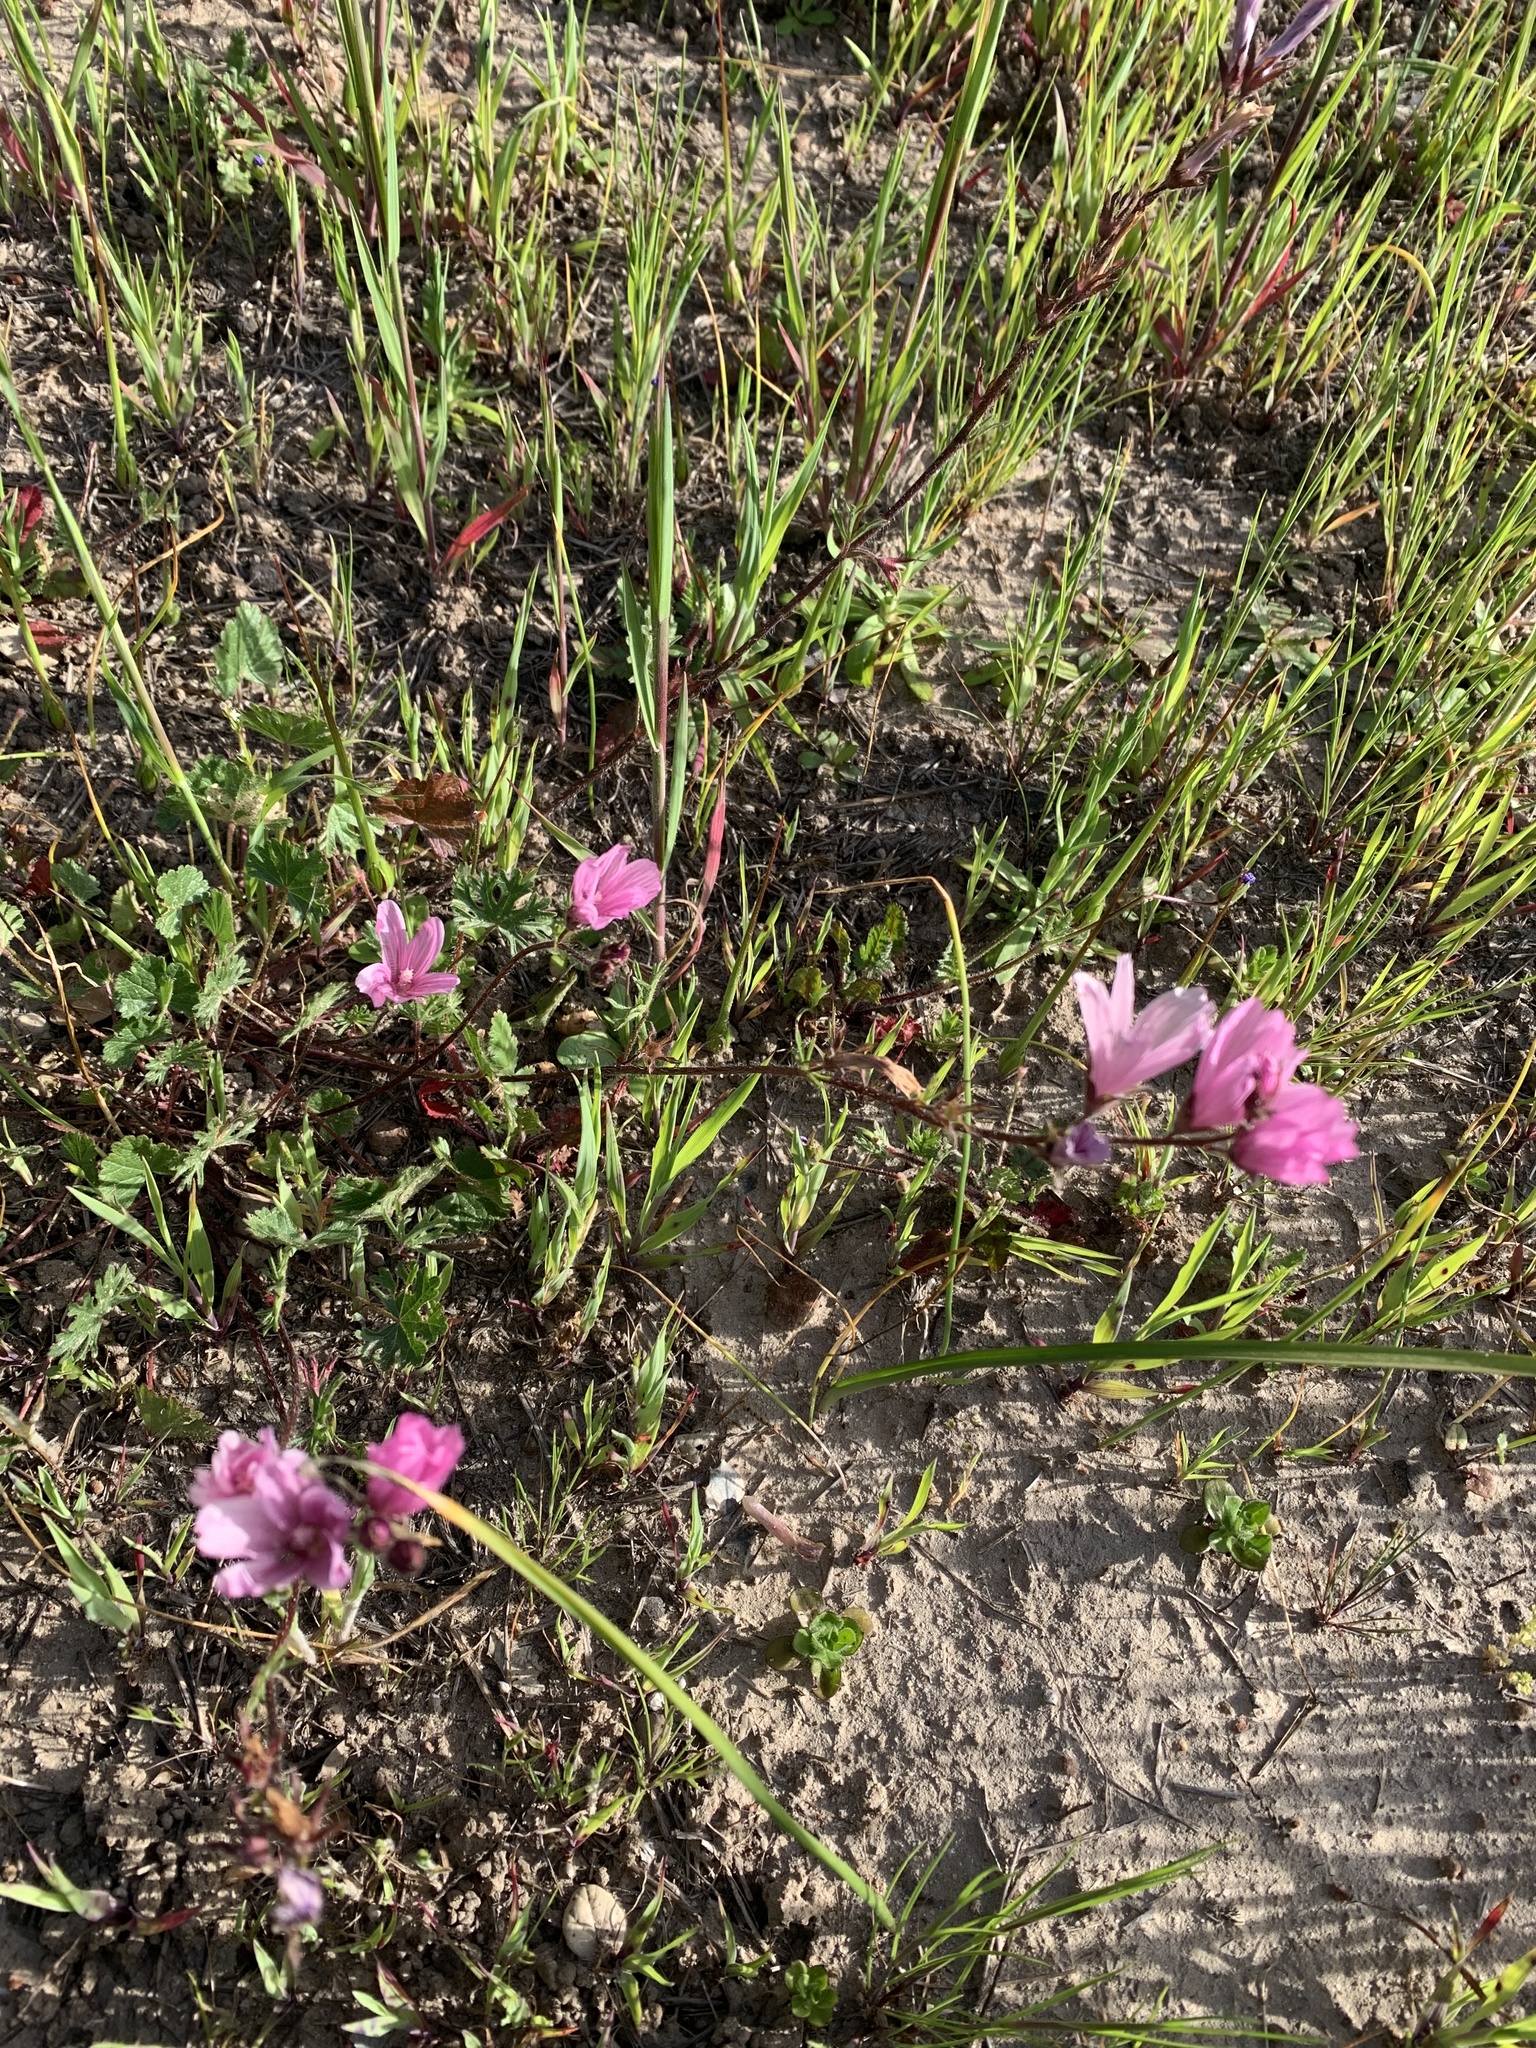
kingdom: Plantae
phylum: Tracheophyta
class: Magnoliopsida
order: Malvales
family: Malvaceae
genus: Sidalcea
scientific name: Sidalcea malviflora
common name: Greek mallow
